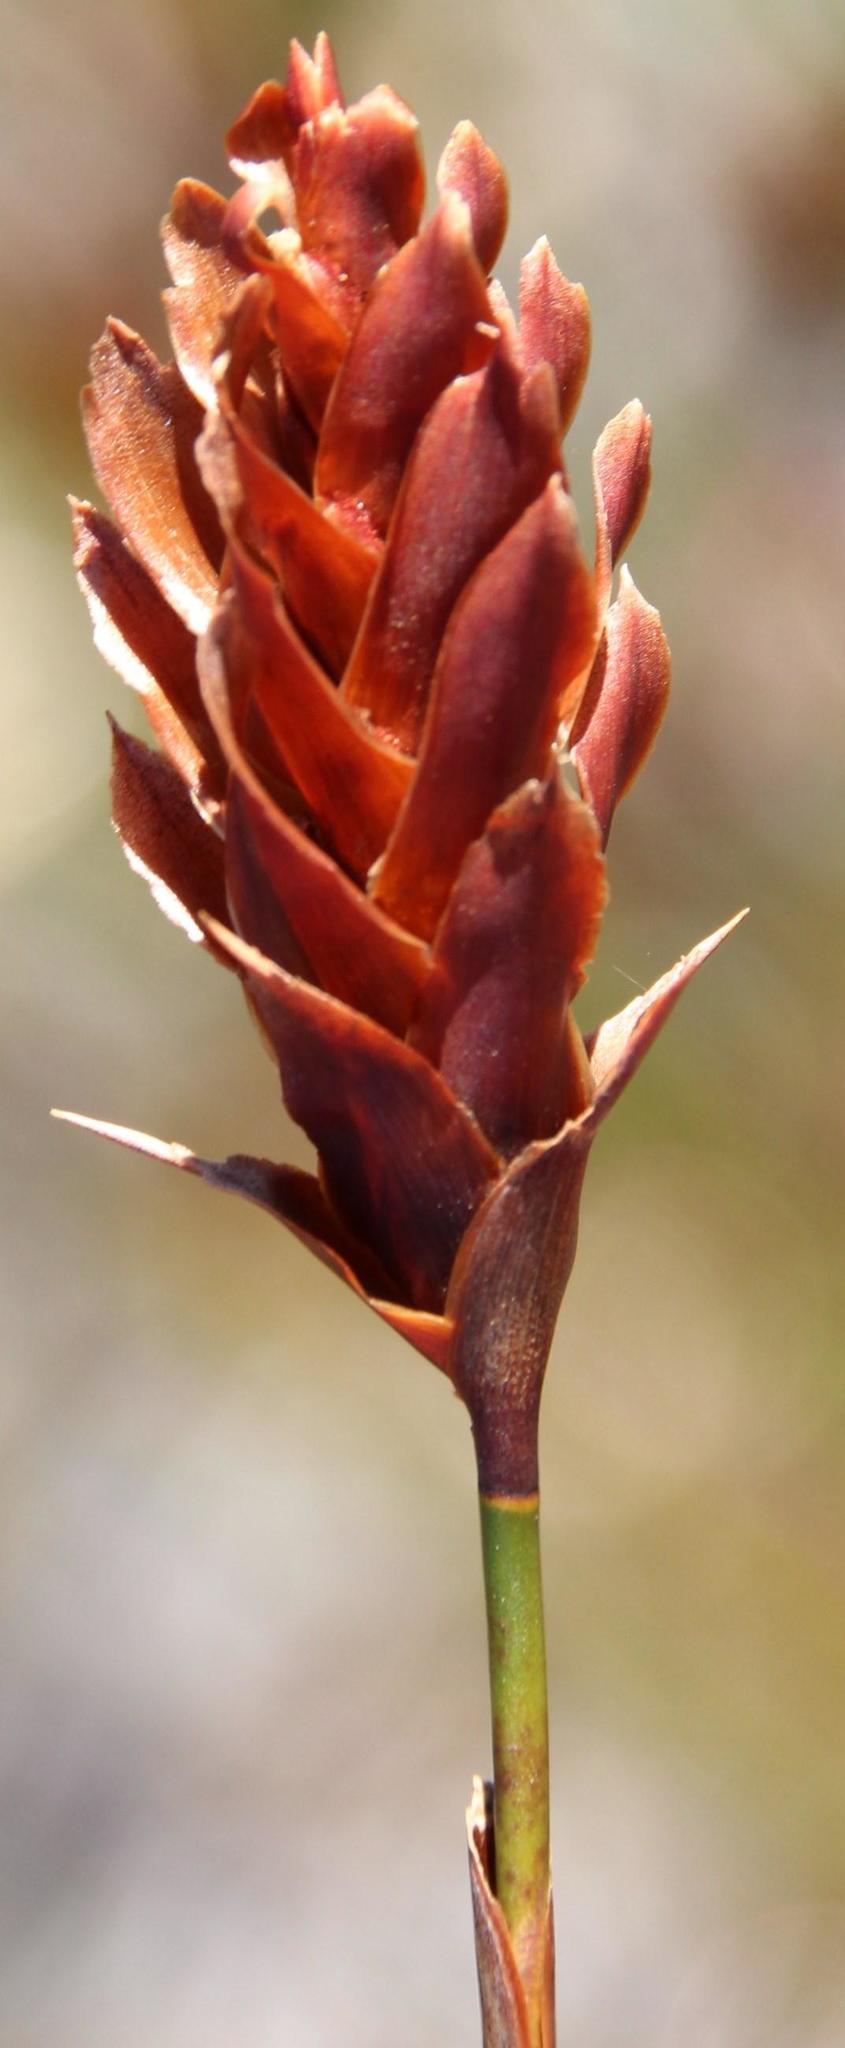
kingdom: Plantae
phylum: Tracheophyta
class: Liliopsida
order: Poales
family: Restionaceae
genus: Restio
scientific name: Restio bifarius
